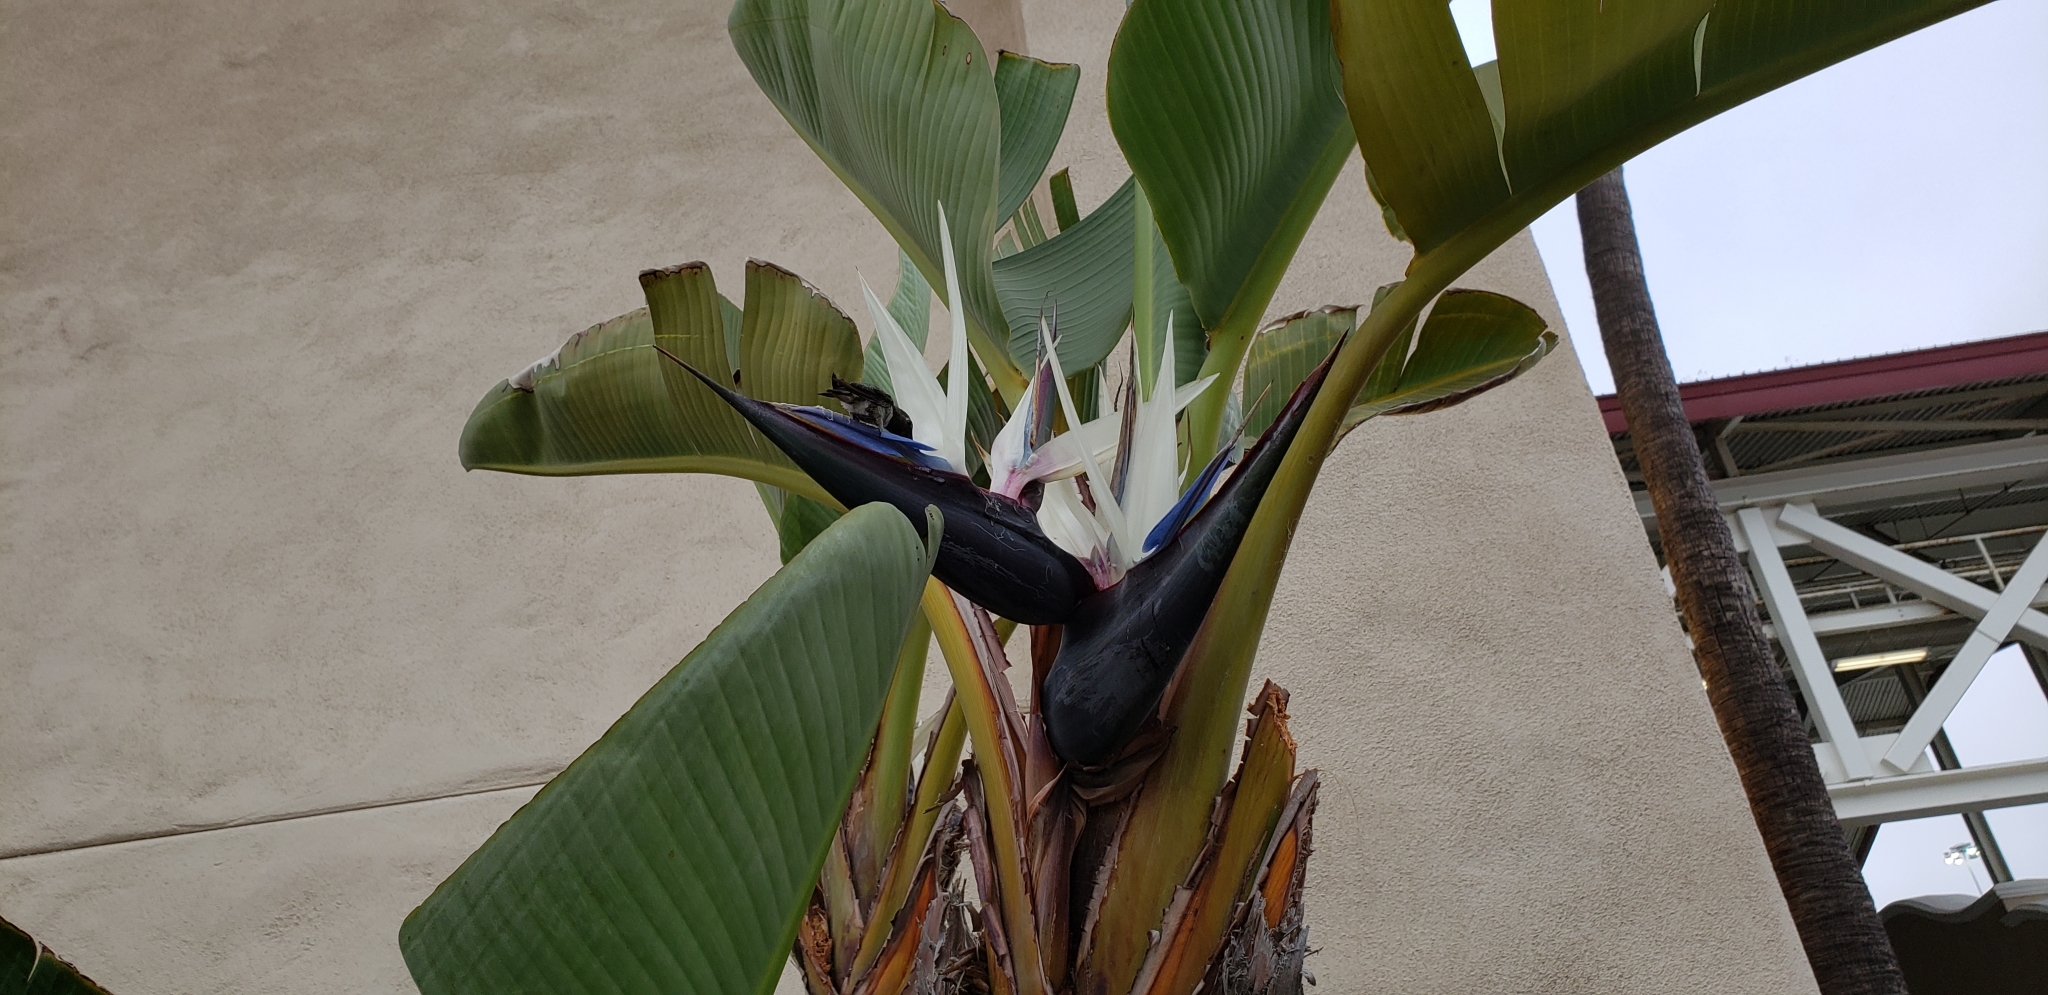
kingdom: Animalia
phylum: Chordata
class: Aves
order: Apodiformes
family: Trochilidae
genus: Calypte
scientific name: Calypte anna
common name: Anna's hummingbird
